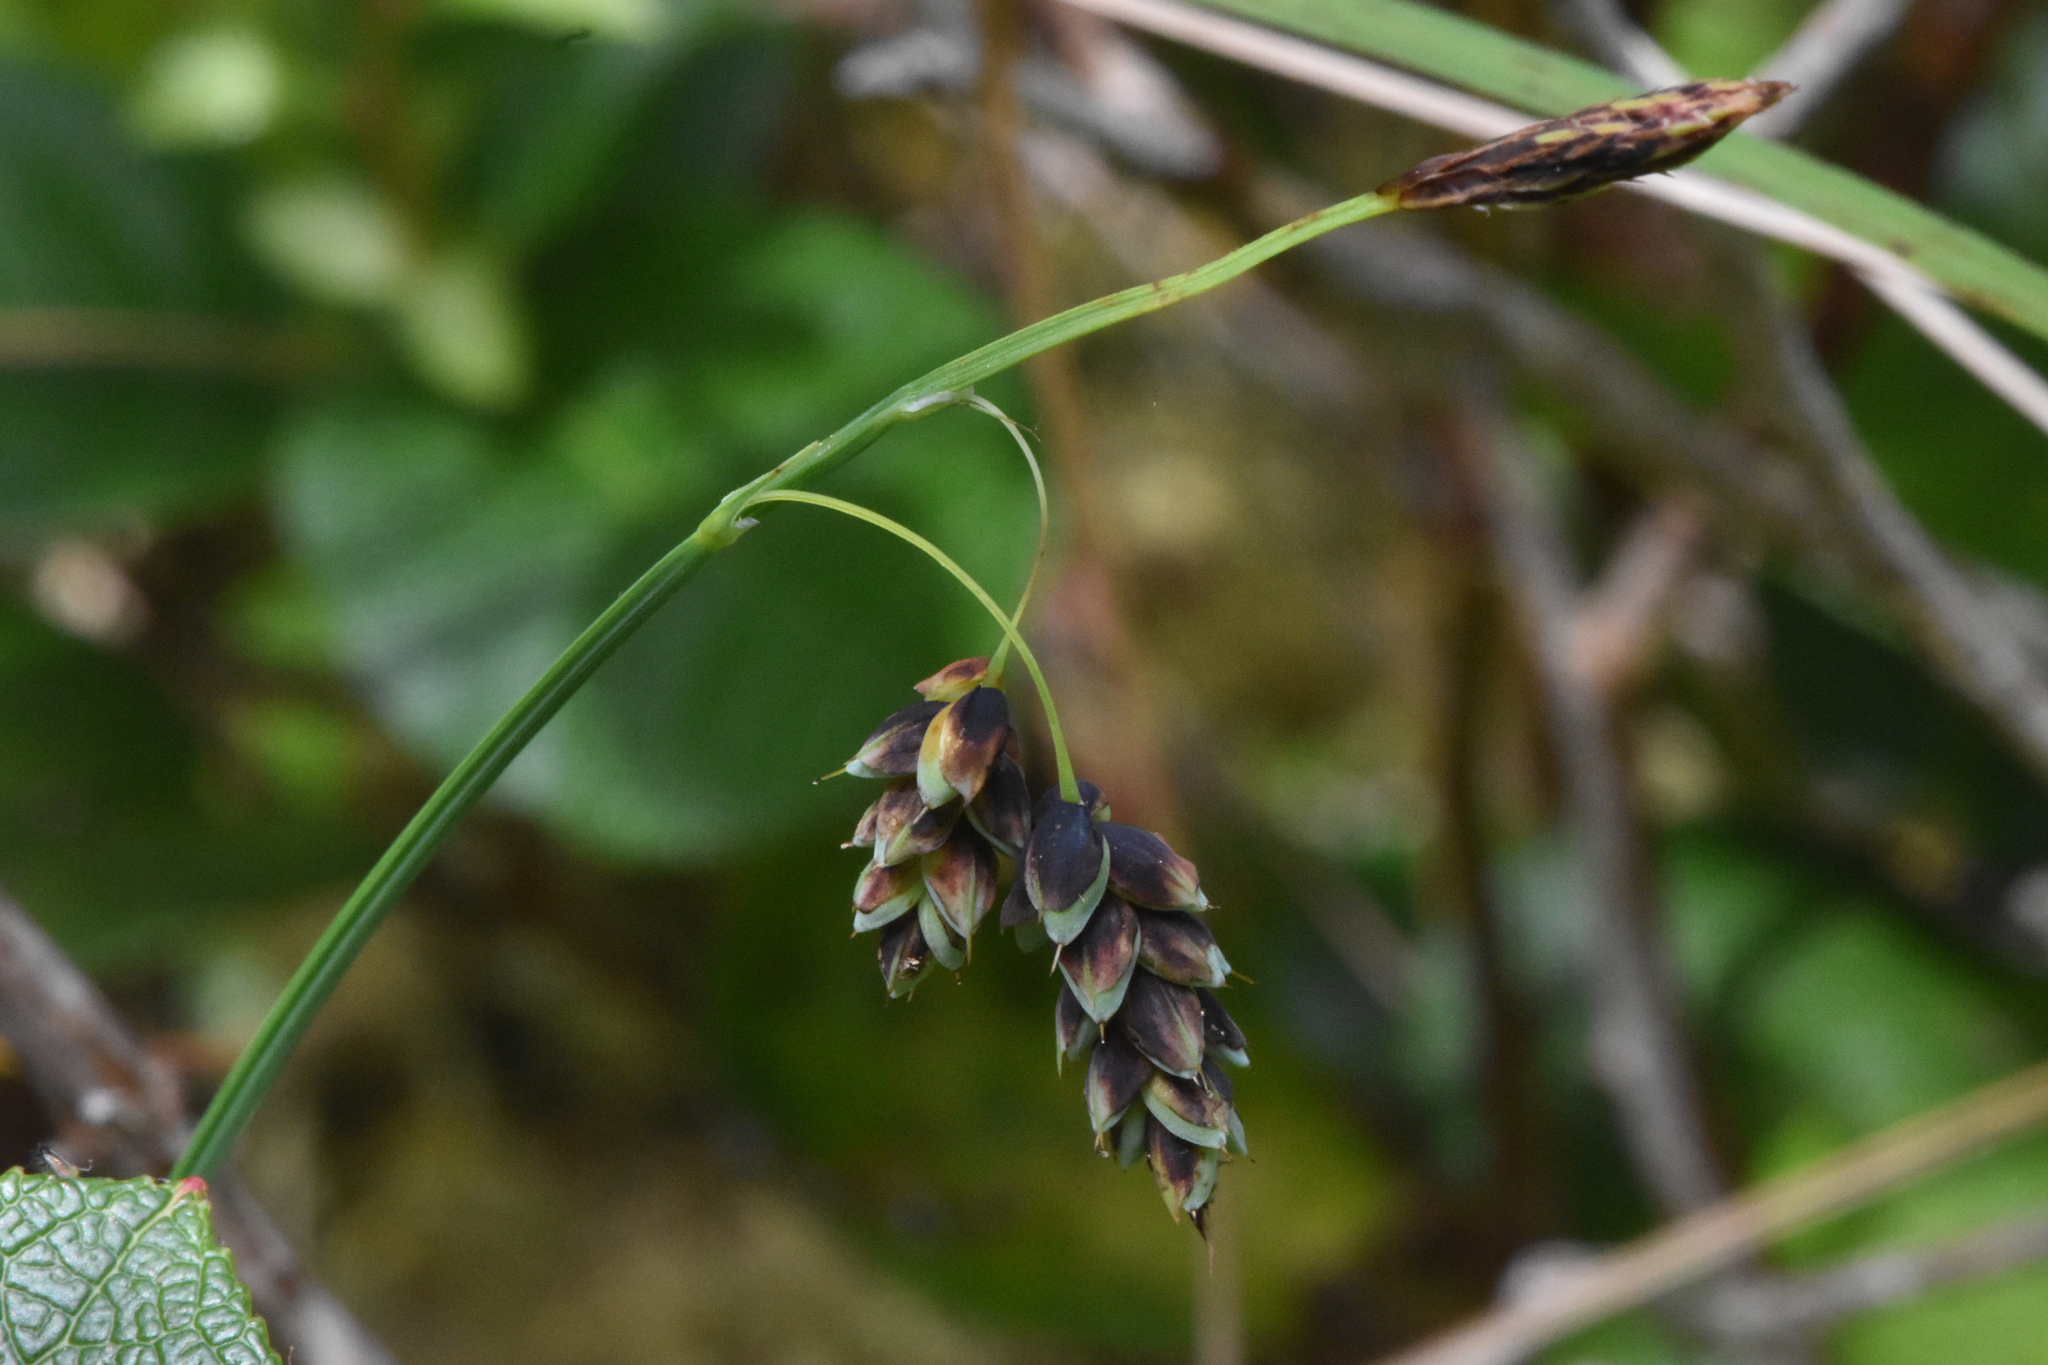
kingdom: Plantae
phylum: Tracheophyta
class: Liliopsida
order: Poales
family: Cyperaceae
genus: Carex
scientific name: Carex pluriflora
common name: Manyflower sedge
